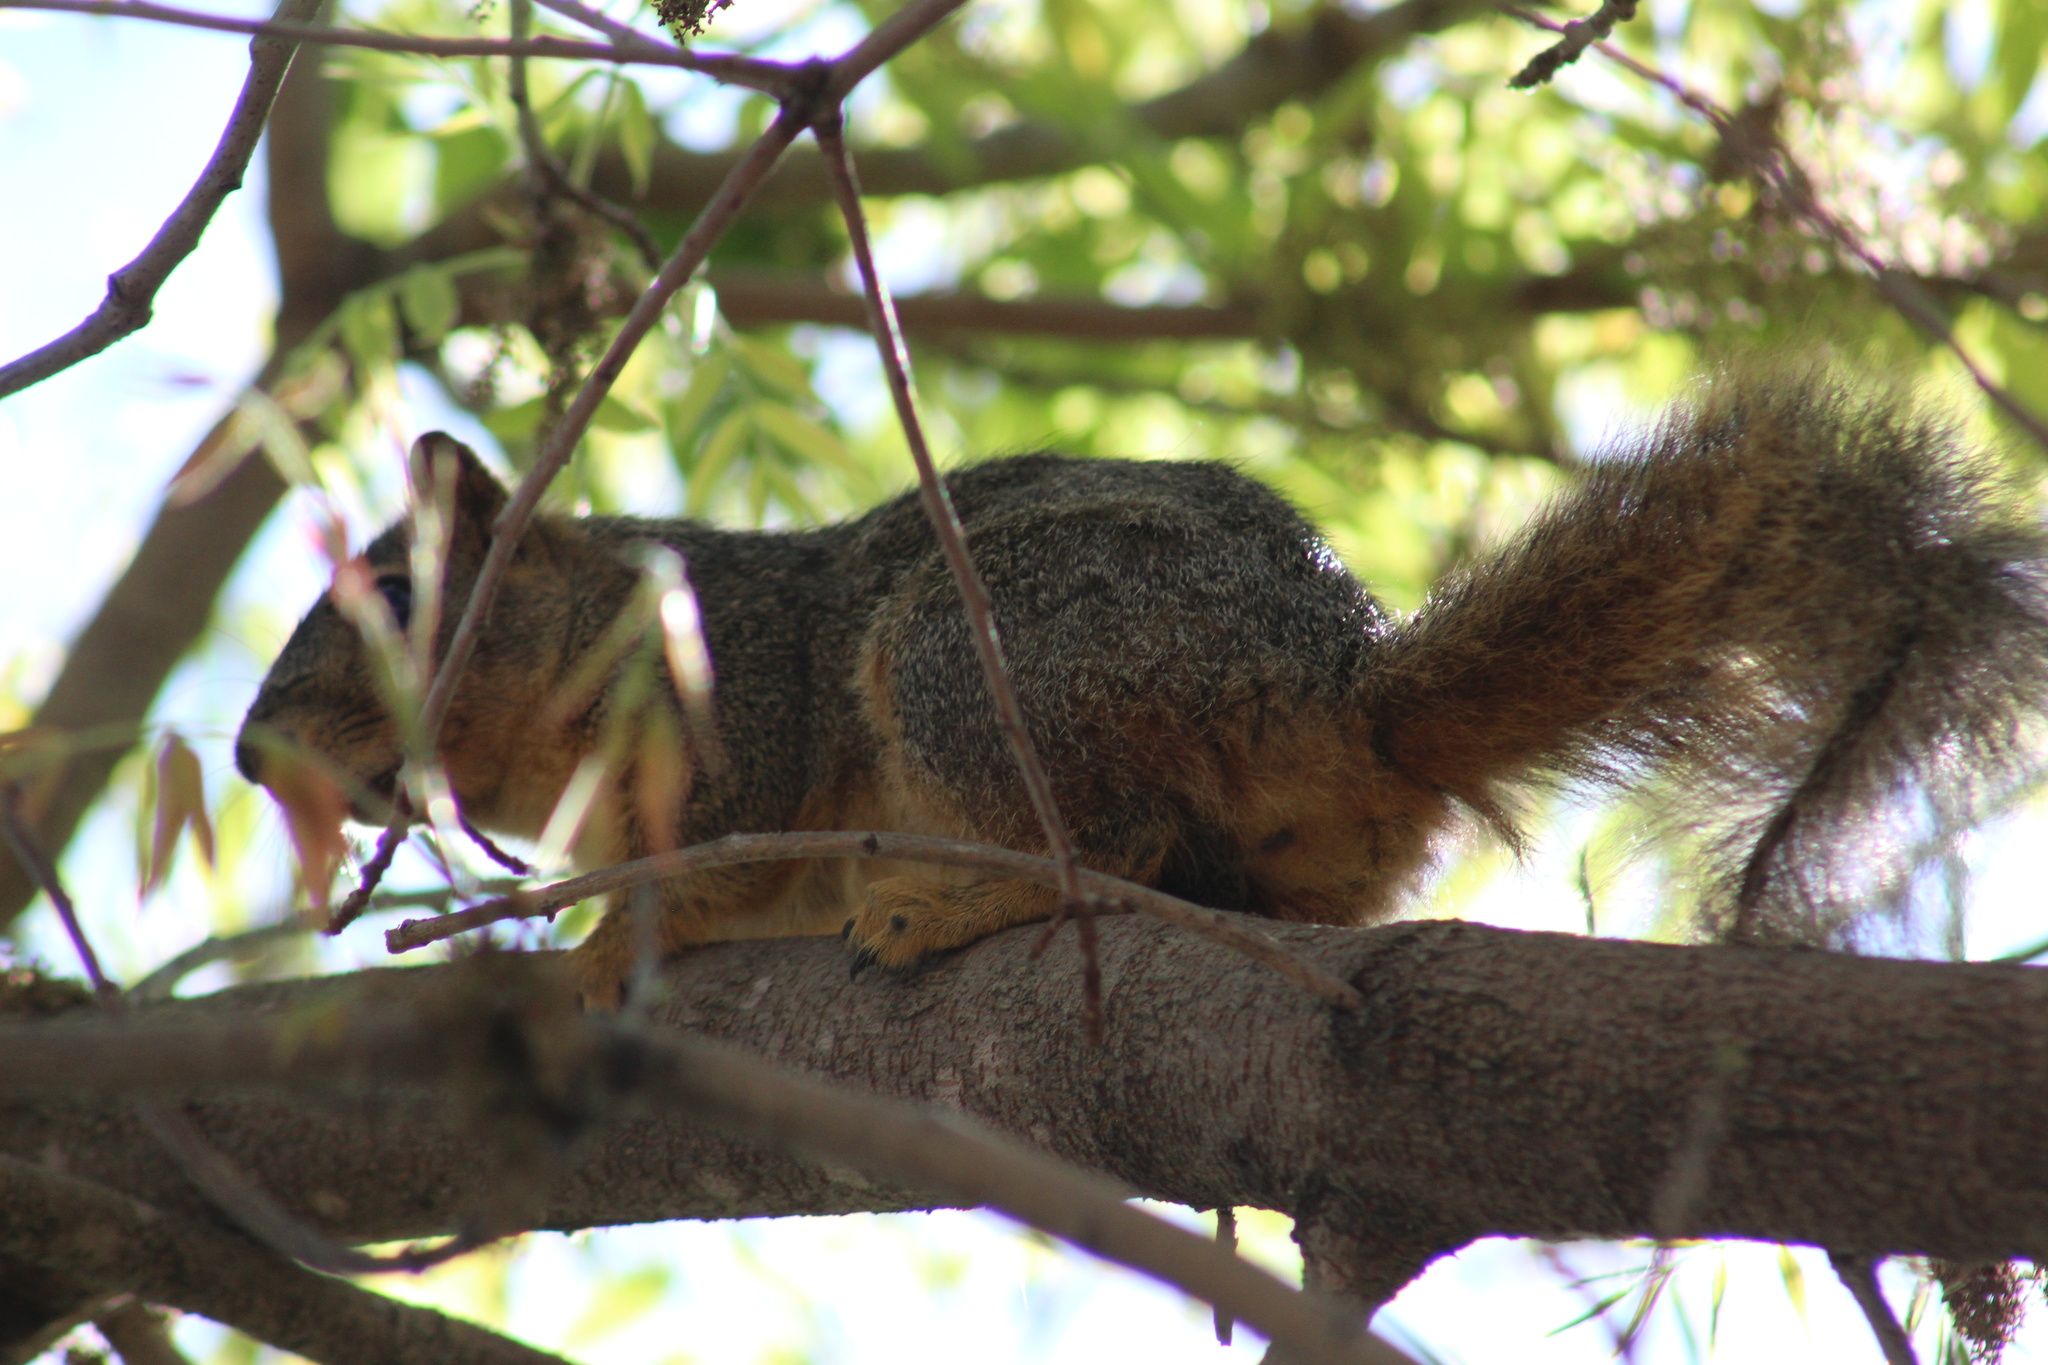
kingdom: Animalia
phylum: Chordata
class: Mammalia
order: Rodentia
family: Sciuridae
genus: Sciurus
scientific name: Sciurus niger
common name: Fox squirrel
